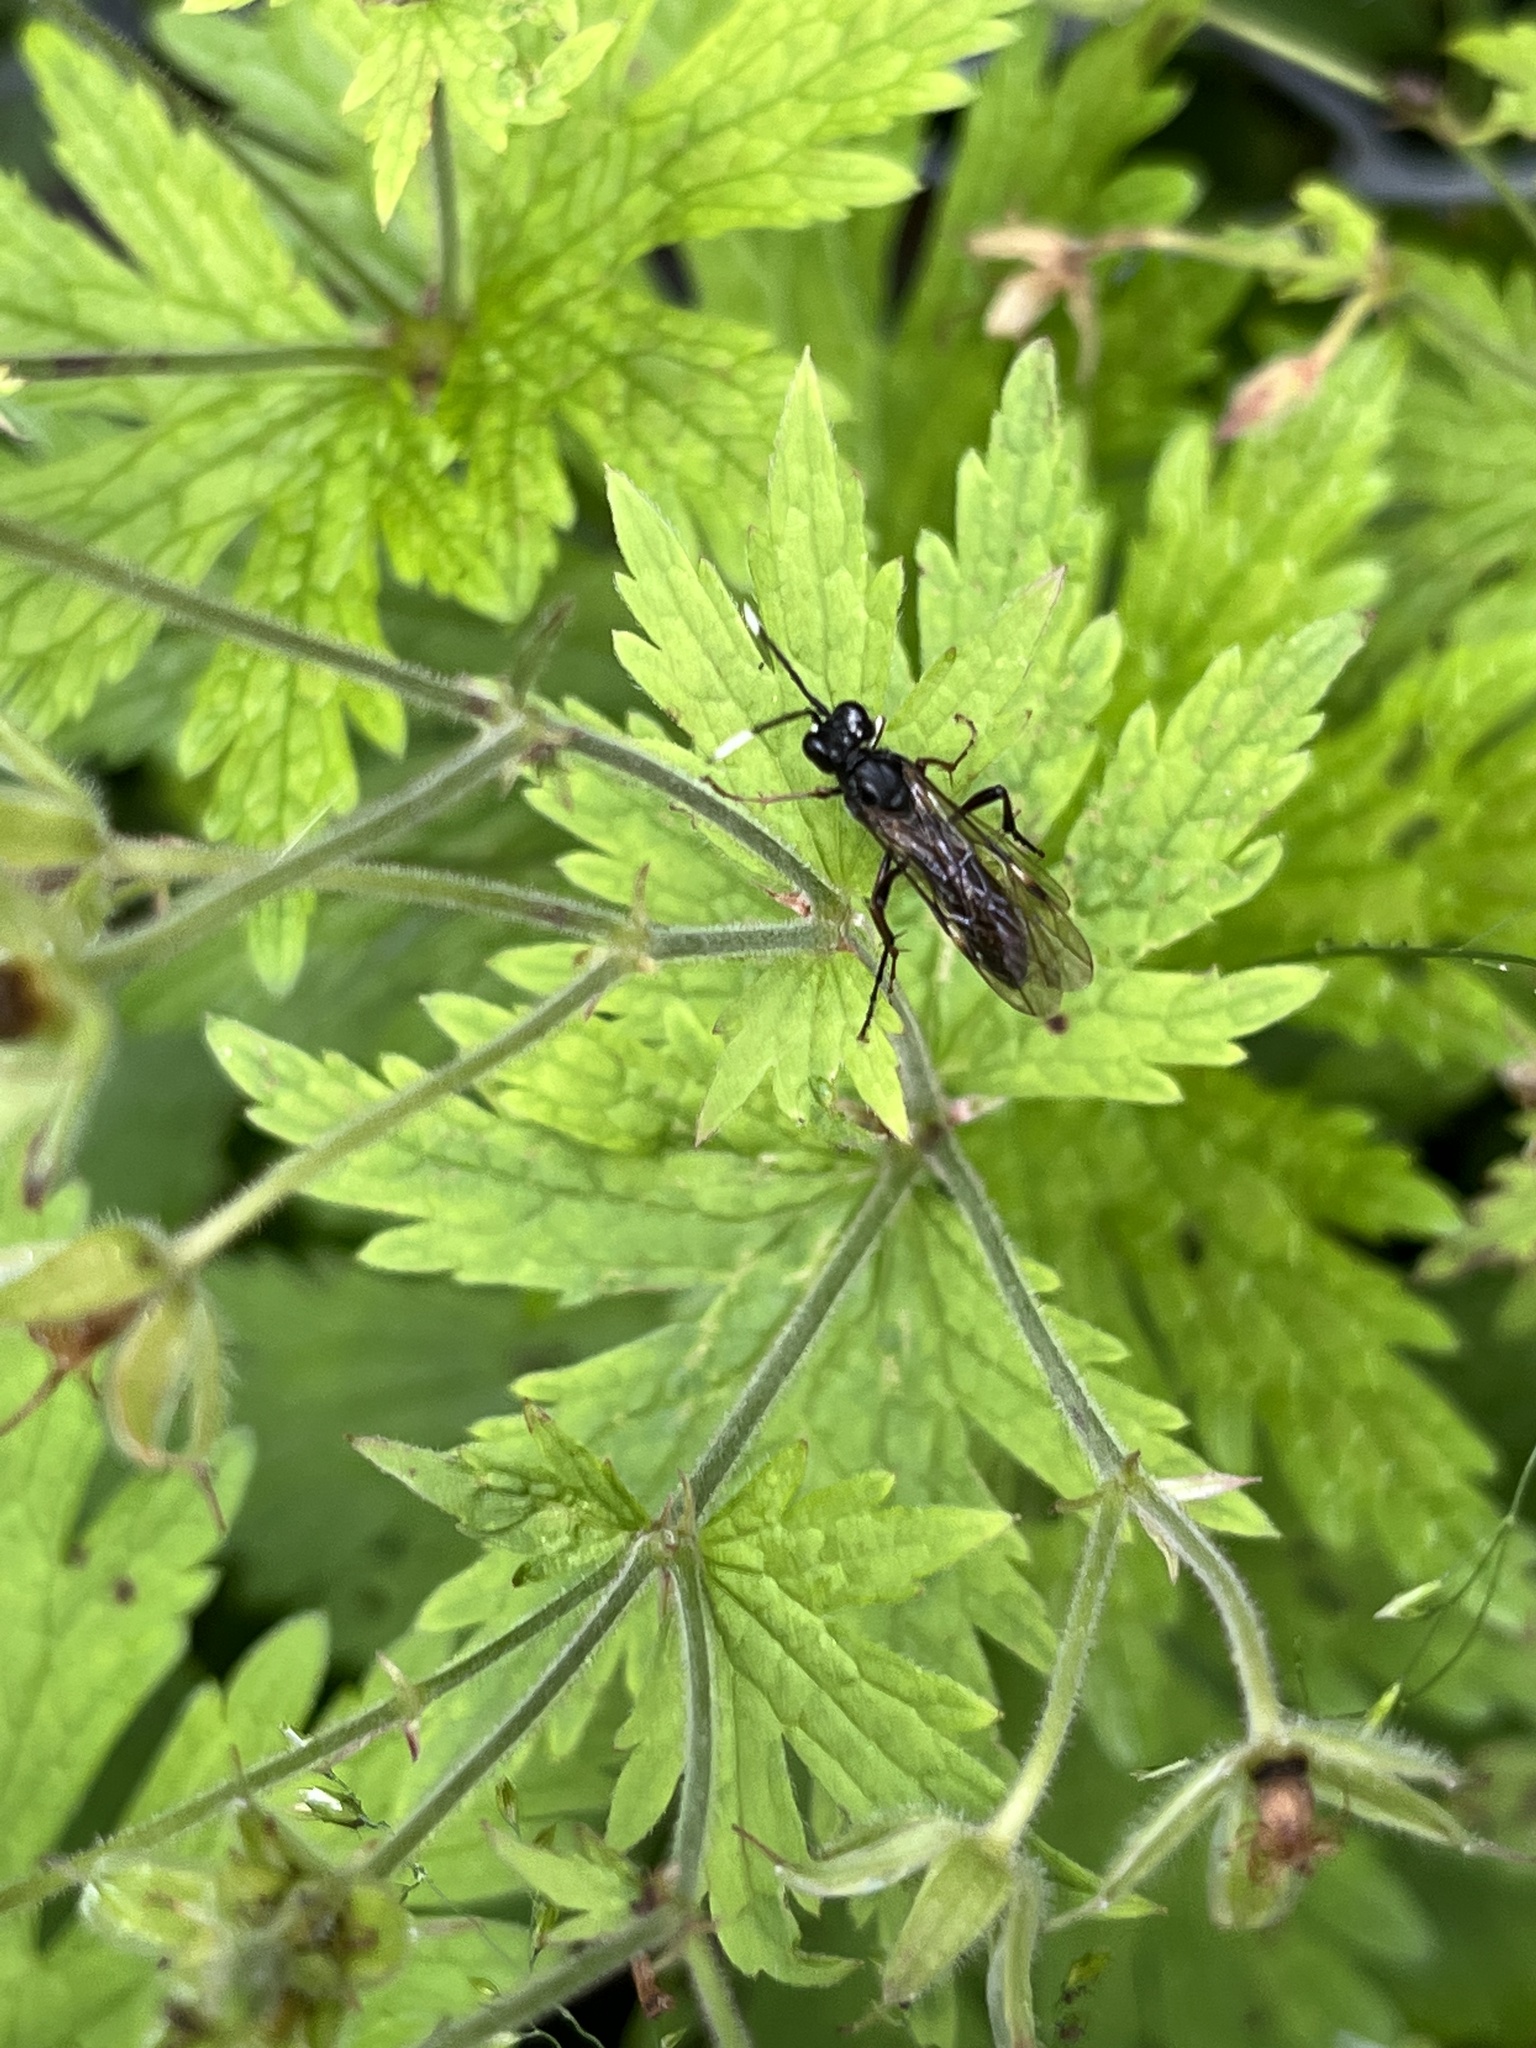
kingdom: Animalia
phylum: Arthropoda
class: Insecta
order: Hymenoptera
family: Tenthredinidae
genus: Tenthredo
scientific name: Tenthredo livida
